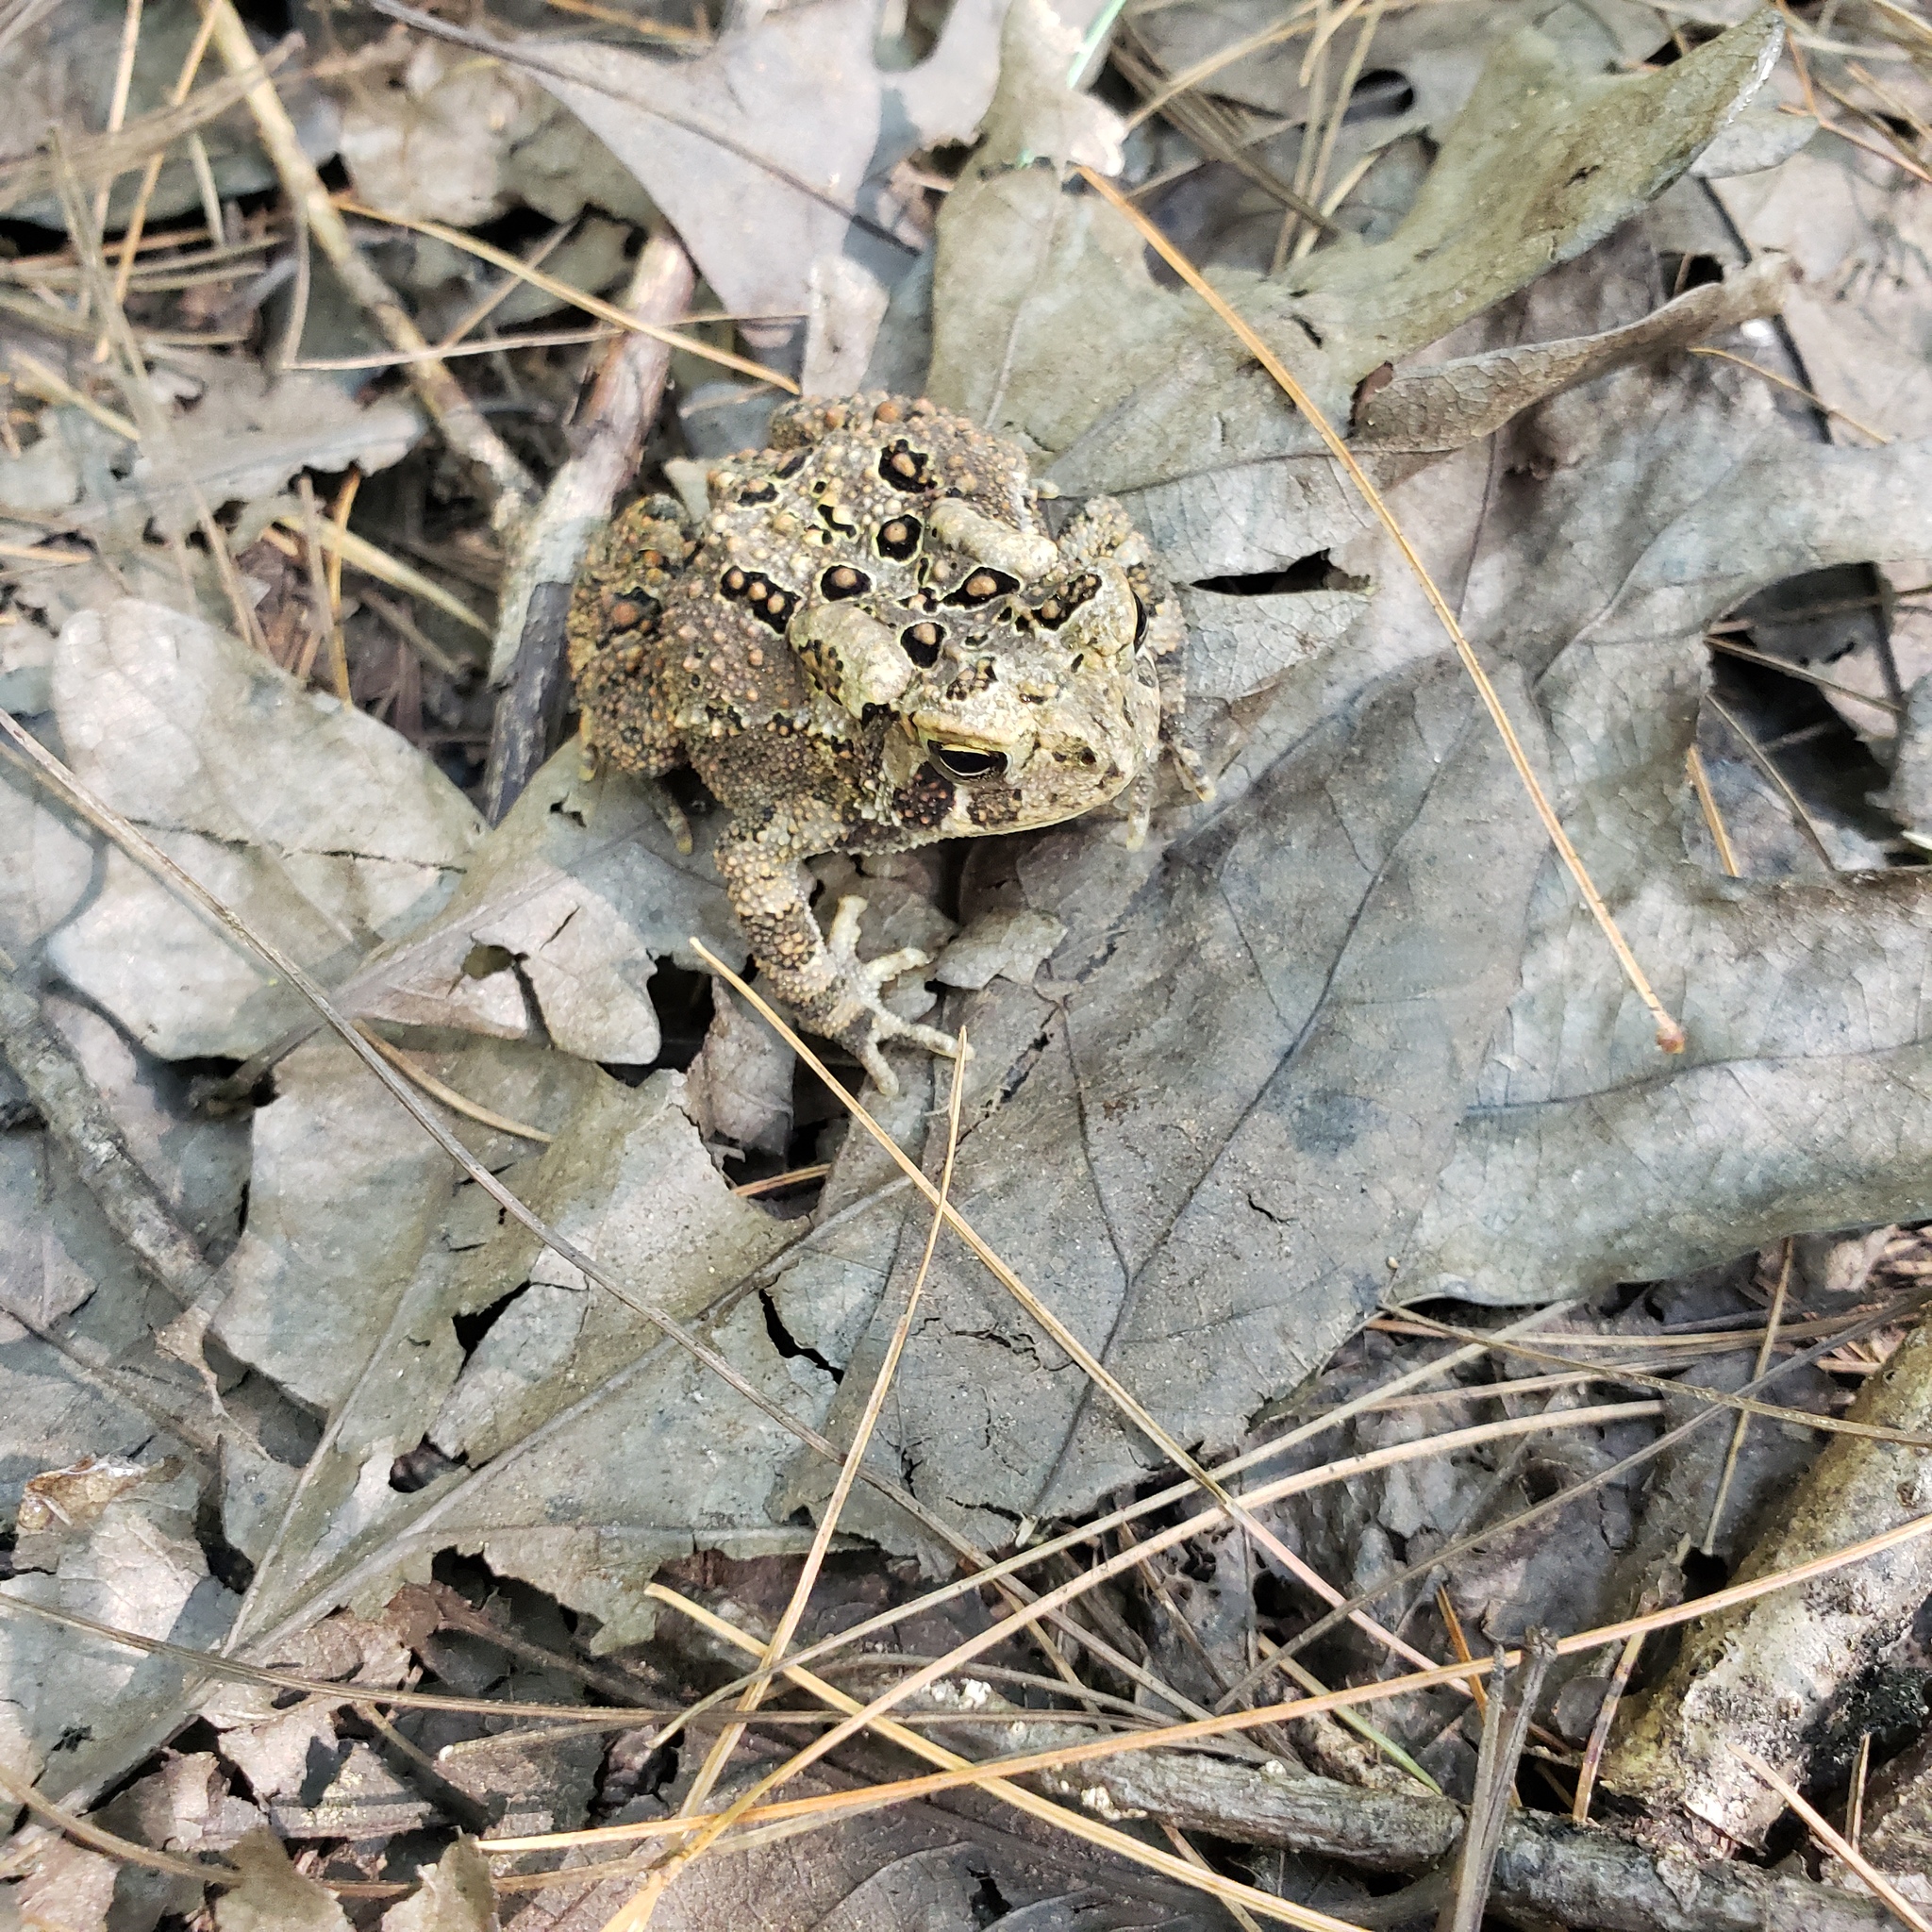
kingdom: Animalia
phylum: Chordata
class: Amphibia
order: Anura
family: Bufonidae
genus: Anaxyrus
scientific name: Anaxyrus americanus
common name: American toad
